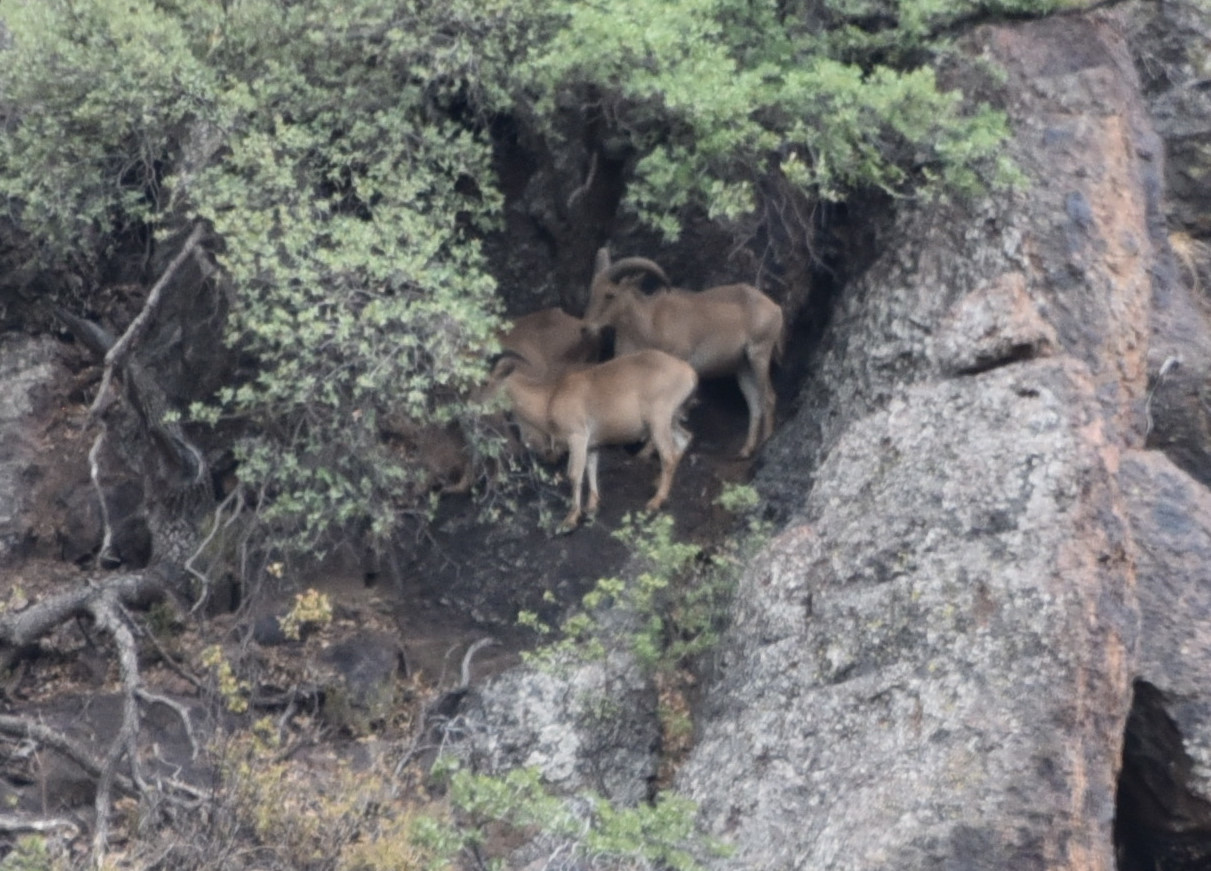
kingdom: Animalia
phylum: Chordata
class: Mammalia
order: Artiodactyla
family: Bovidae
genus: Ammotragus
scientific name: Ammotragus lervia
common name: Barbary sheep
